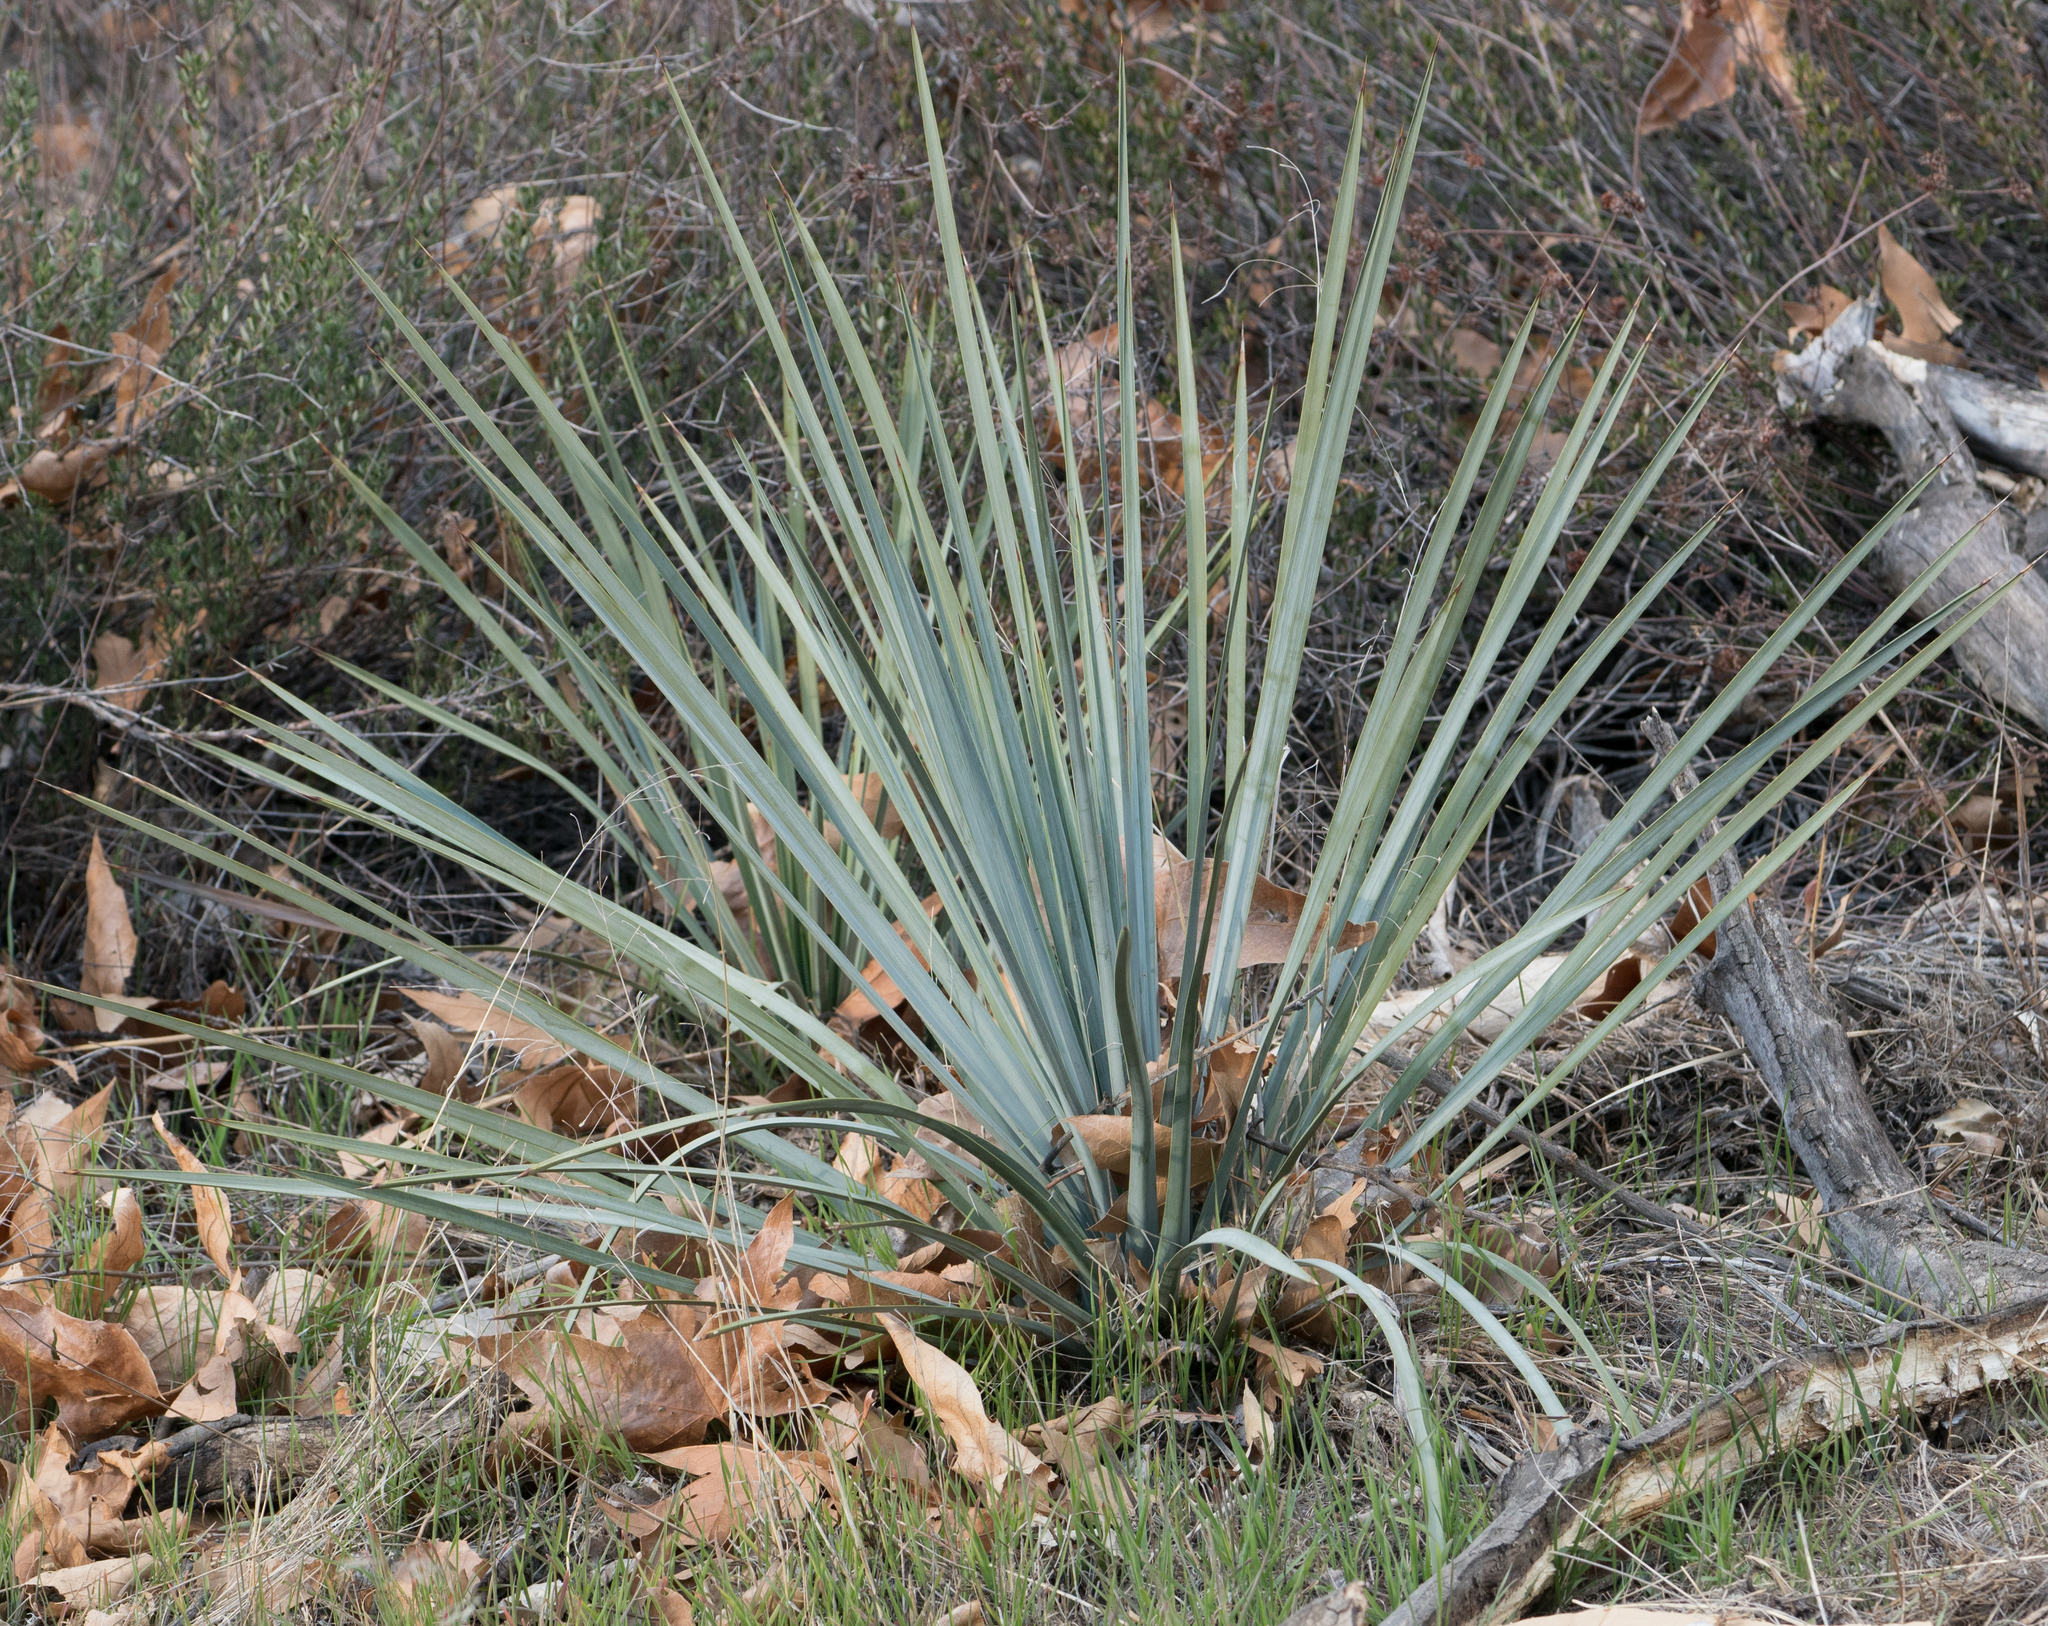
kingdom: Plantae
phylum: Tracheophyta
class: Liliopsida
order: Asparagales
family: Asparagaceae
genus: Hesperoyucca
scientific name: Hesperoyucca whipplei
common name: Our lord's-candle
